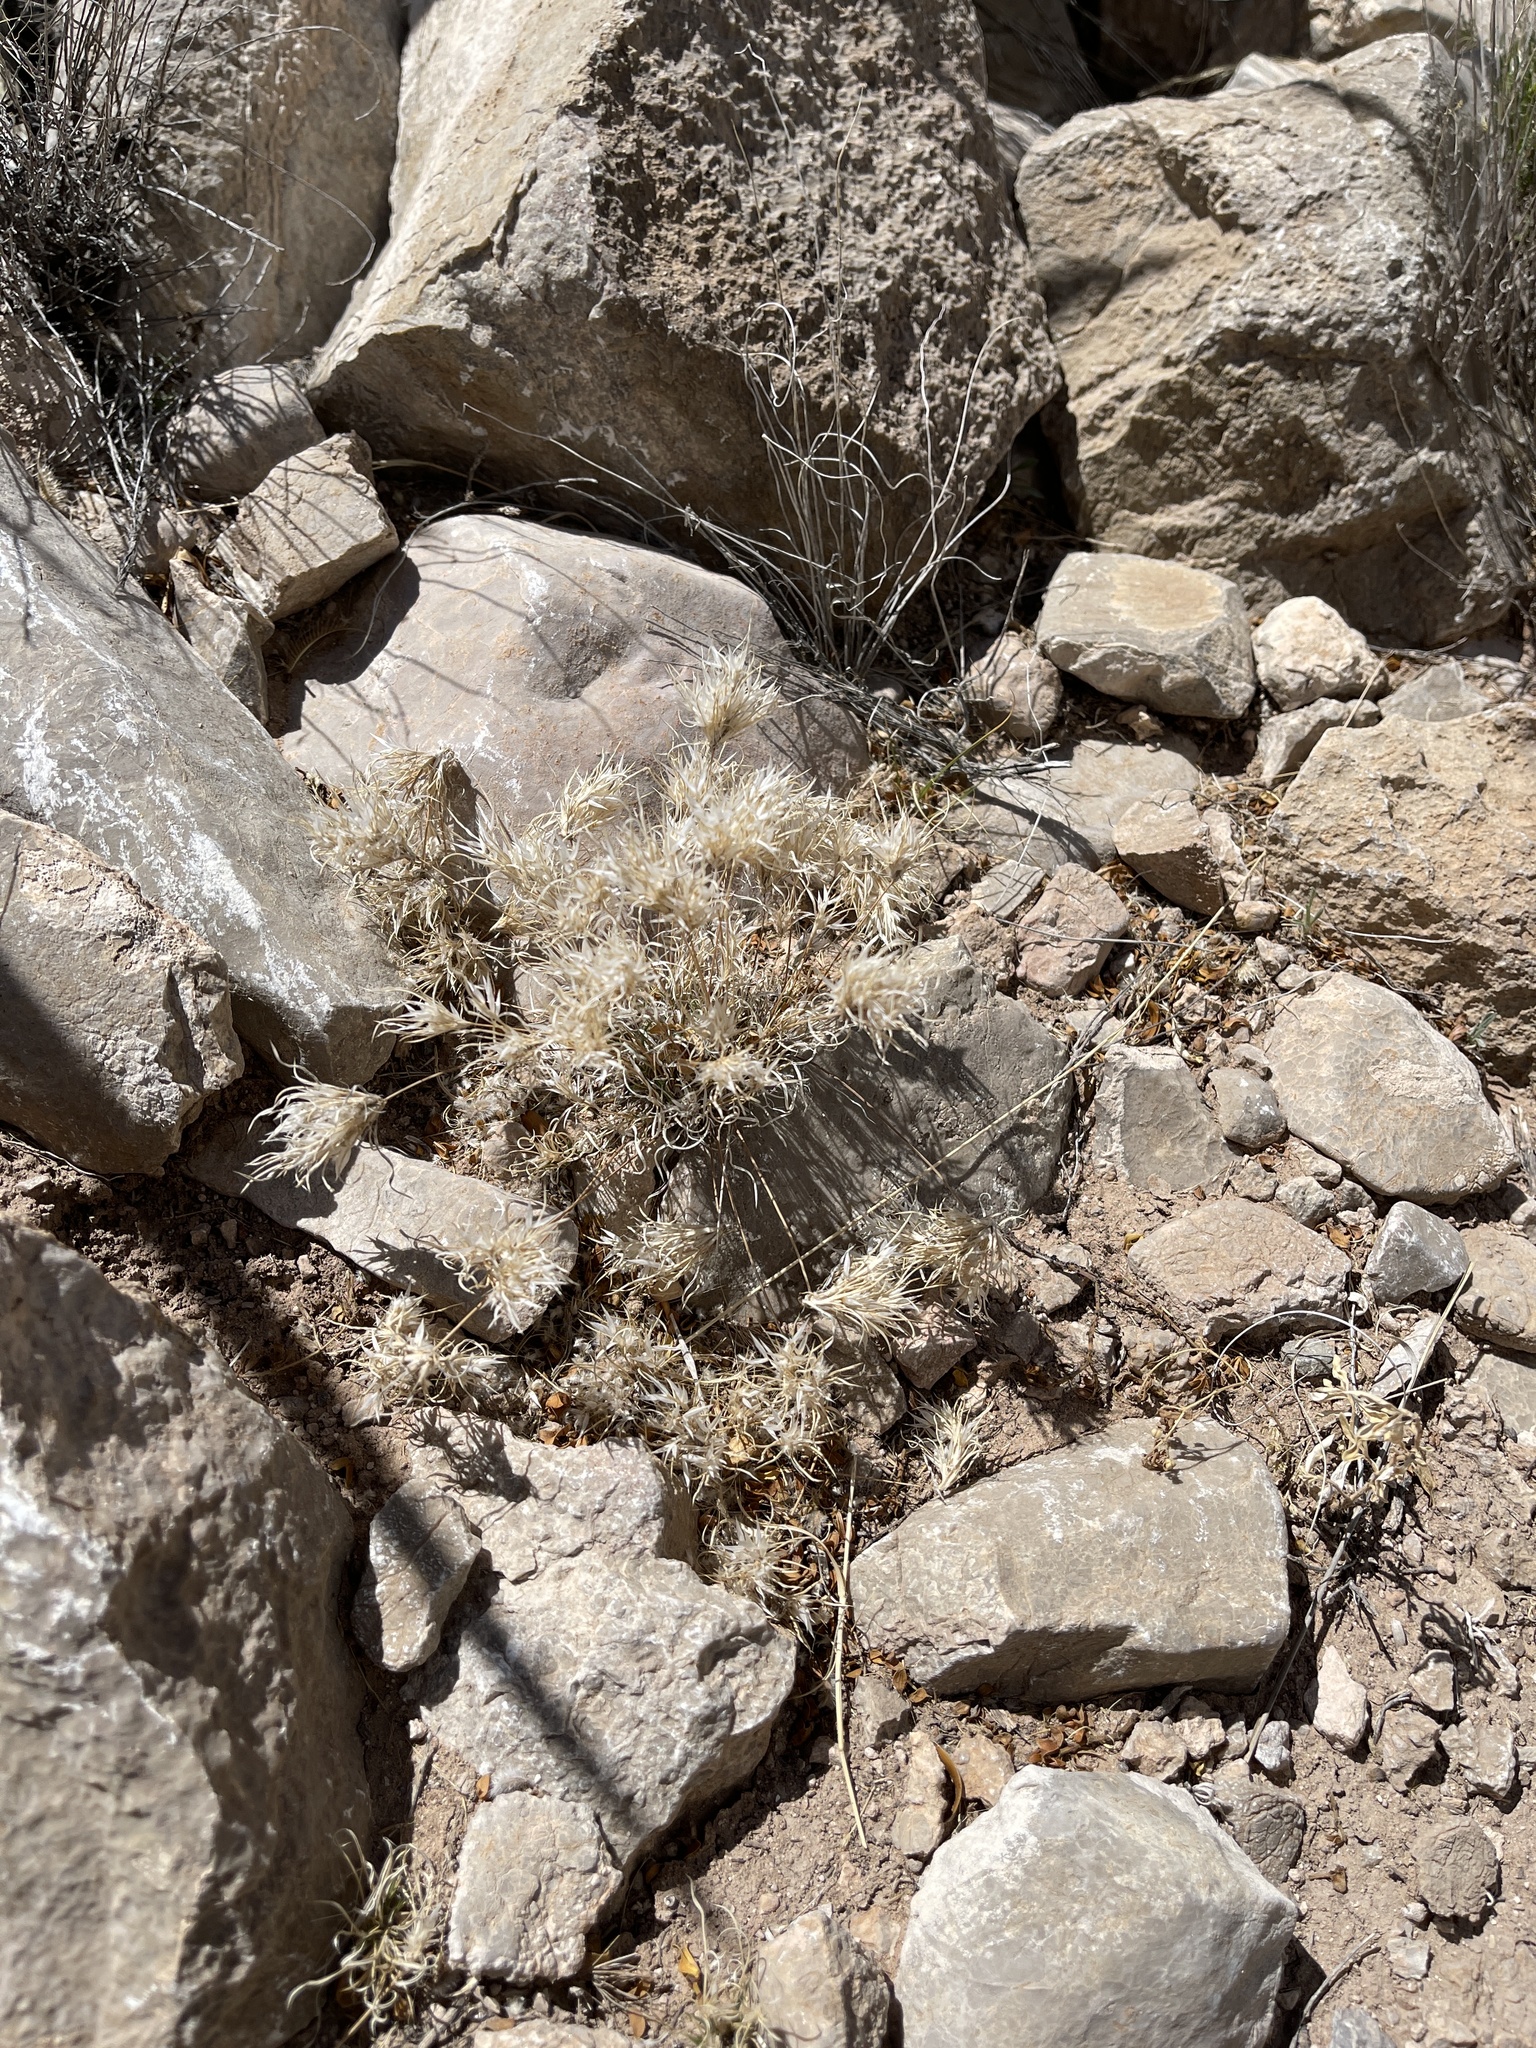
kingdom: Plantae
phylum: Tracheophyta
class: Liliopsida
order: Poales
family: Poaceae
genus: Dasyochloa
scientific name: Dasyochloa pulchella
